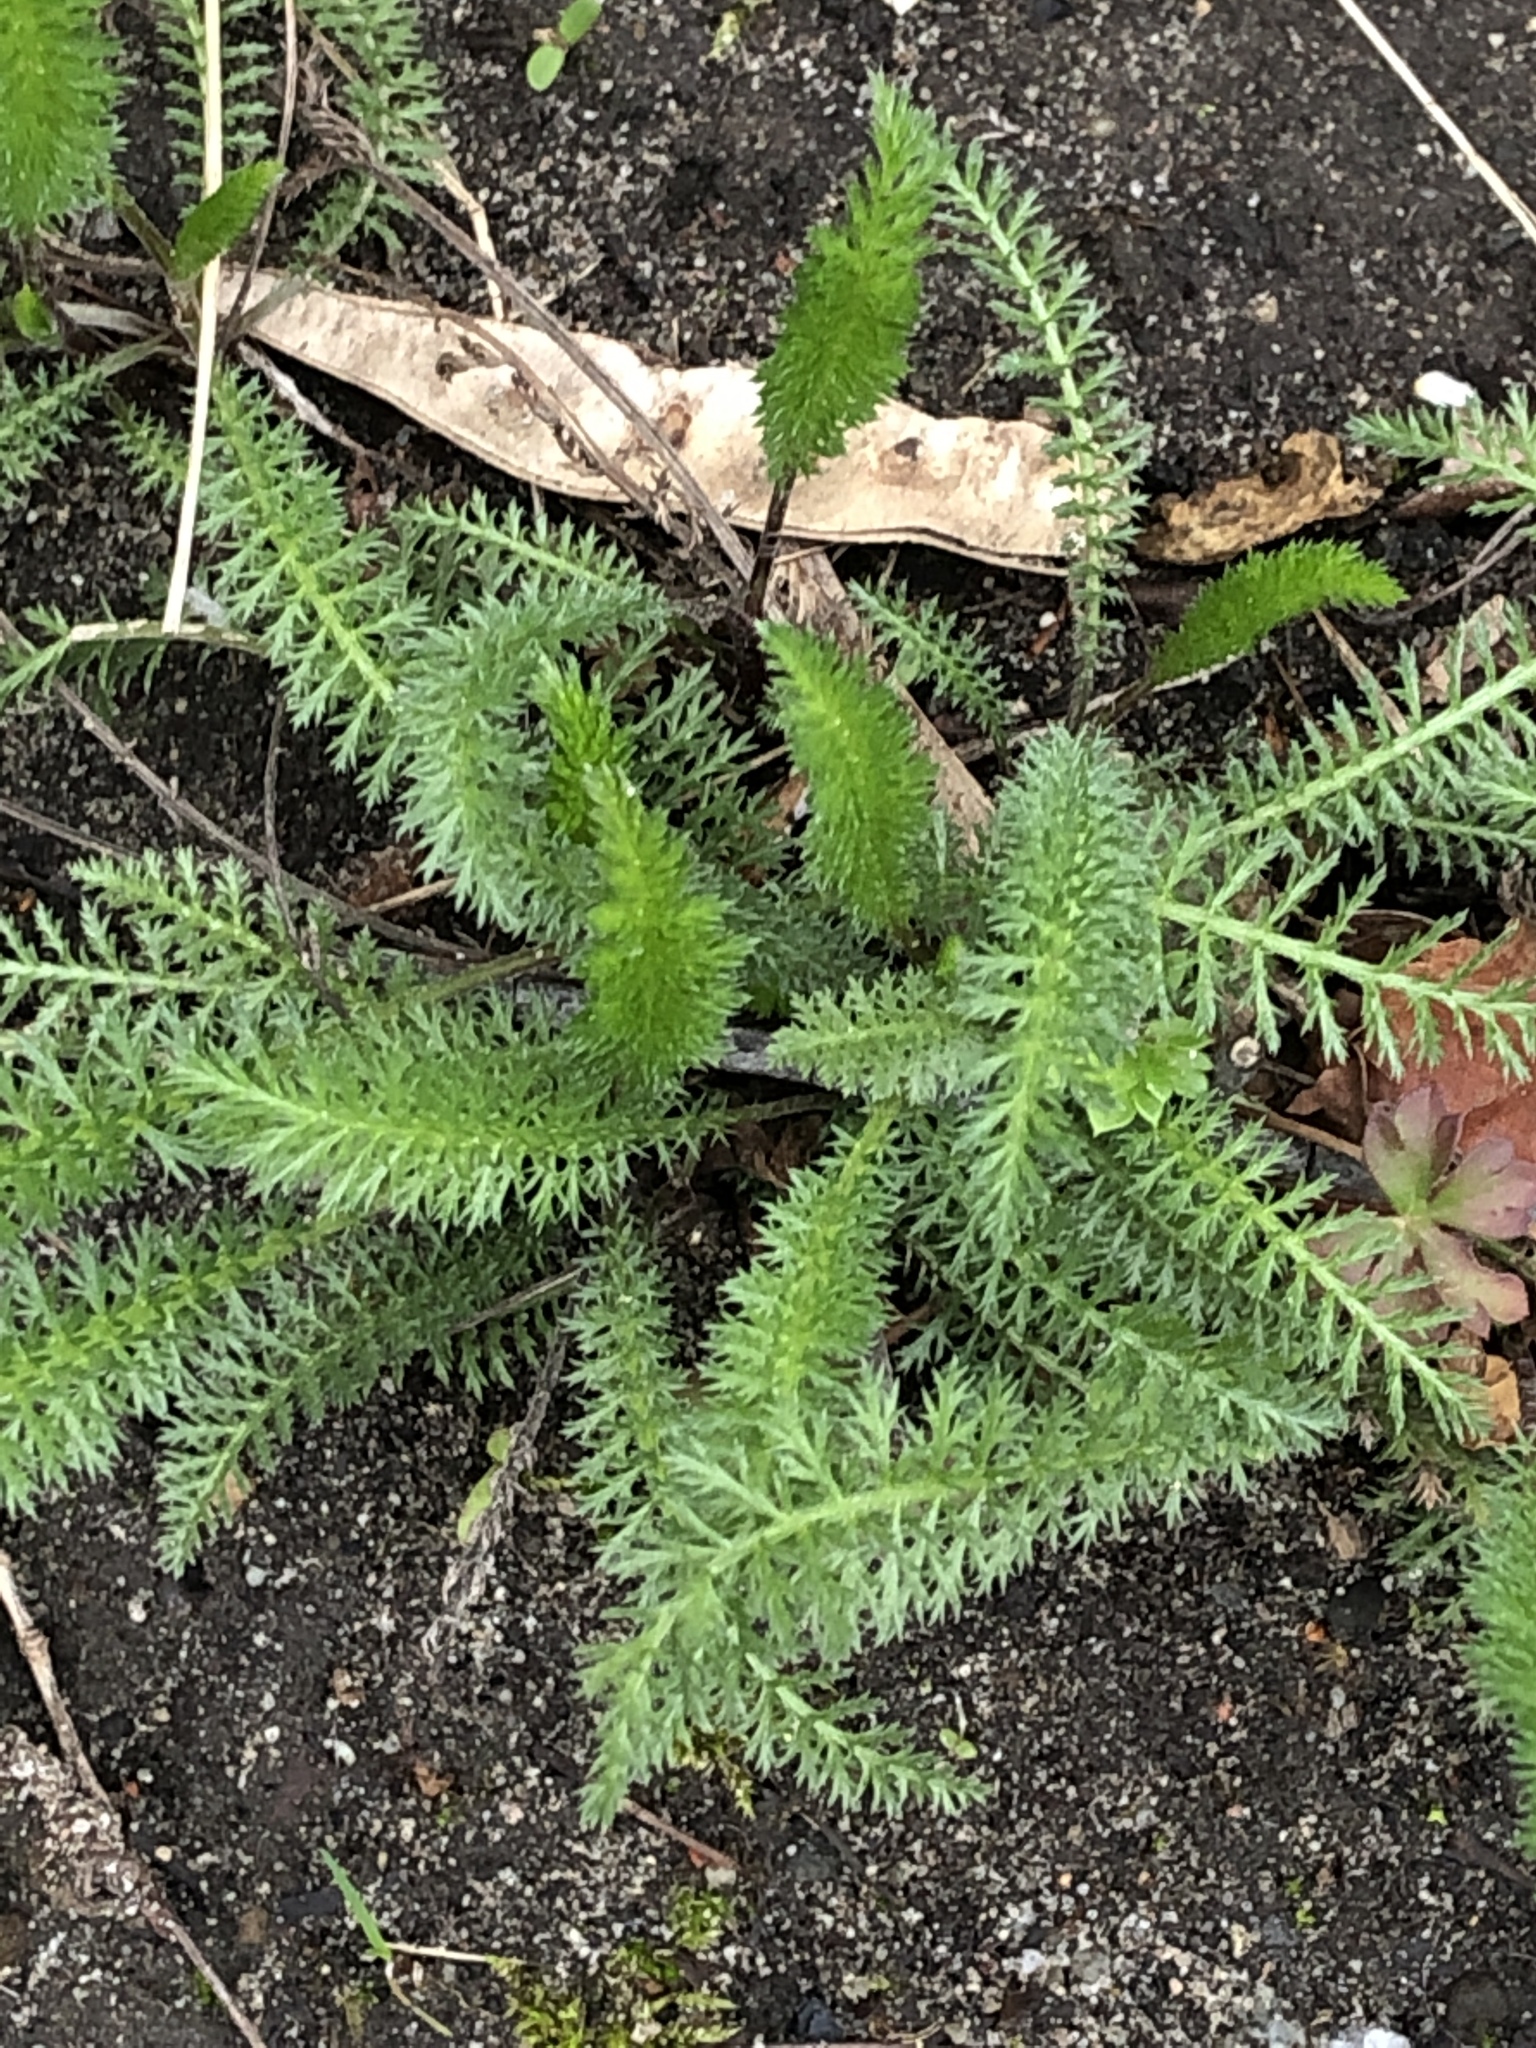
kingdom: Plantae
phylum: Tracheophyta
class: Magnoliopsida
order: Asterales
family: Asteraceae
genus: Achillea
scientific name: Achillea millefolium
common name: Yarrow
